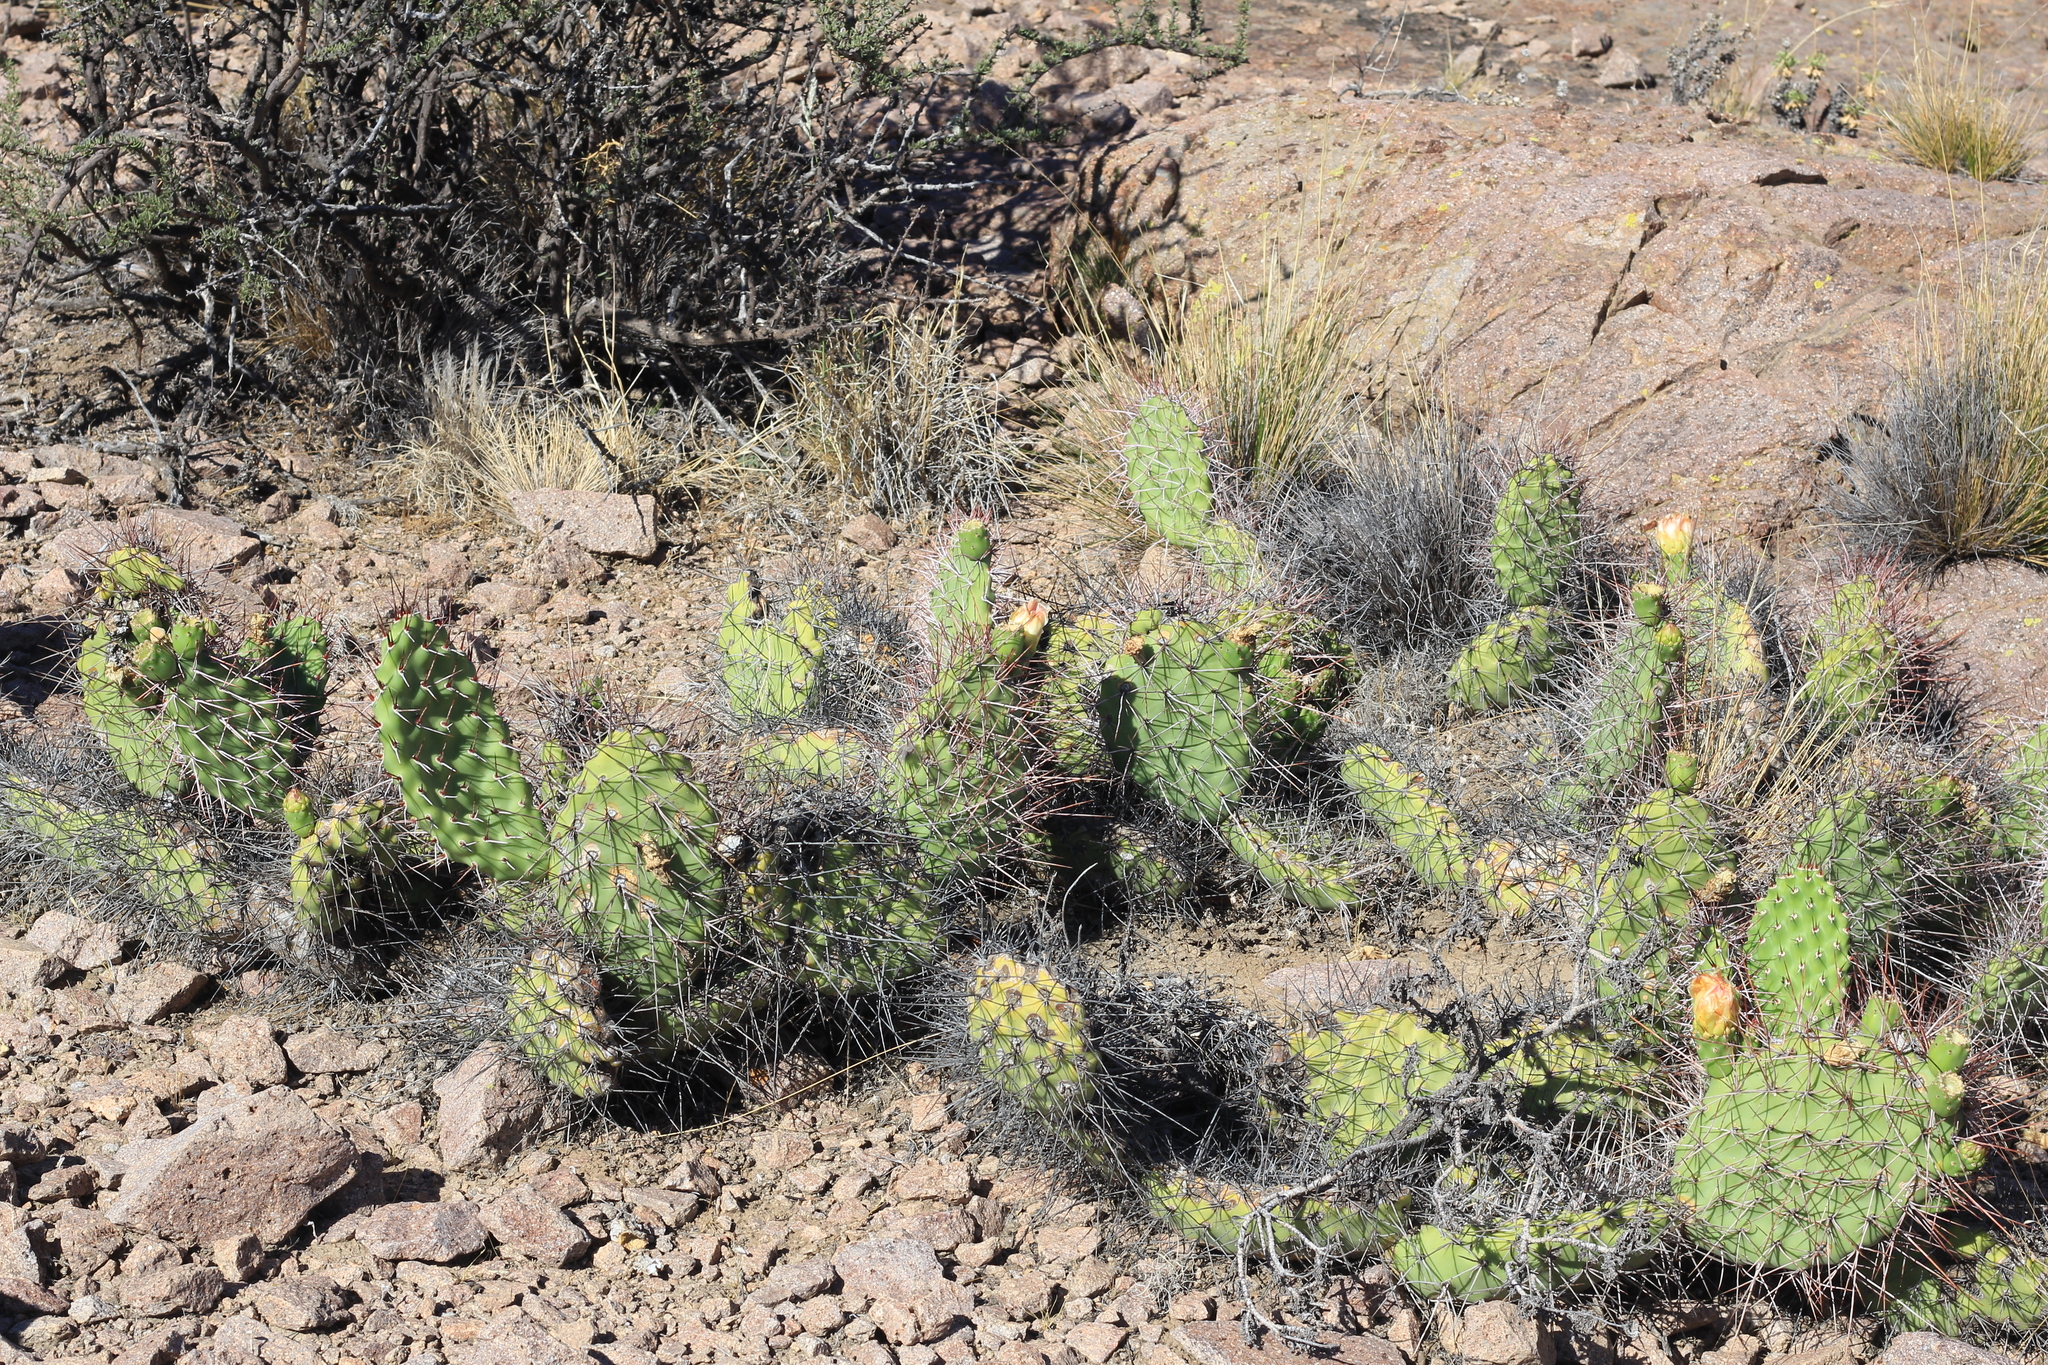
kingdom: Plantae
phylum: Tracheophyta
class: Magnoliopsida
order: Caryophyllales
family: Cactaceae
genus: Opuntia
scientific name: Opuntia sulphurea
